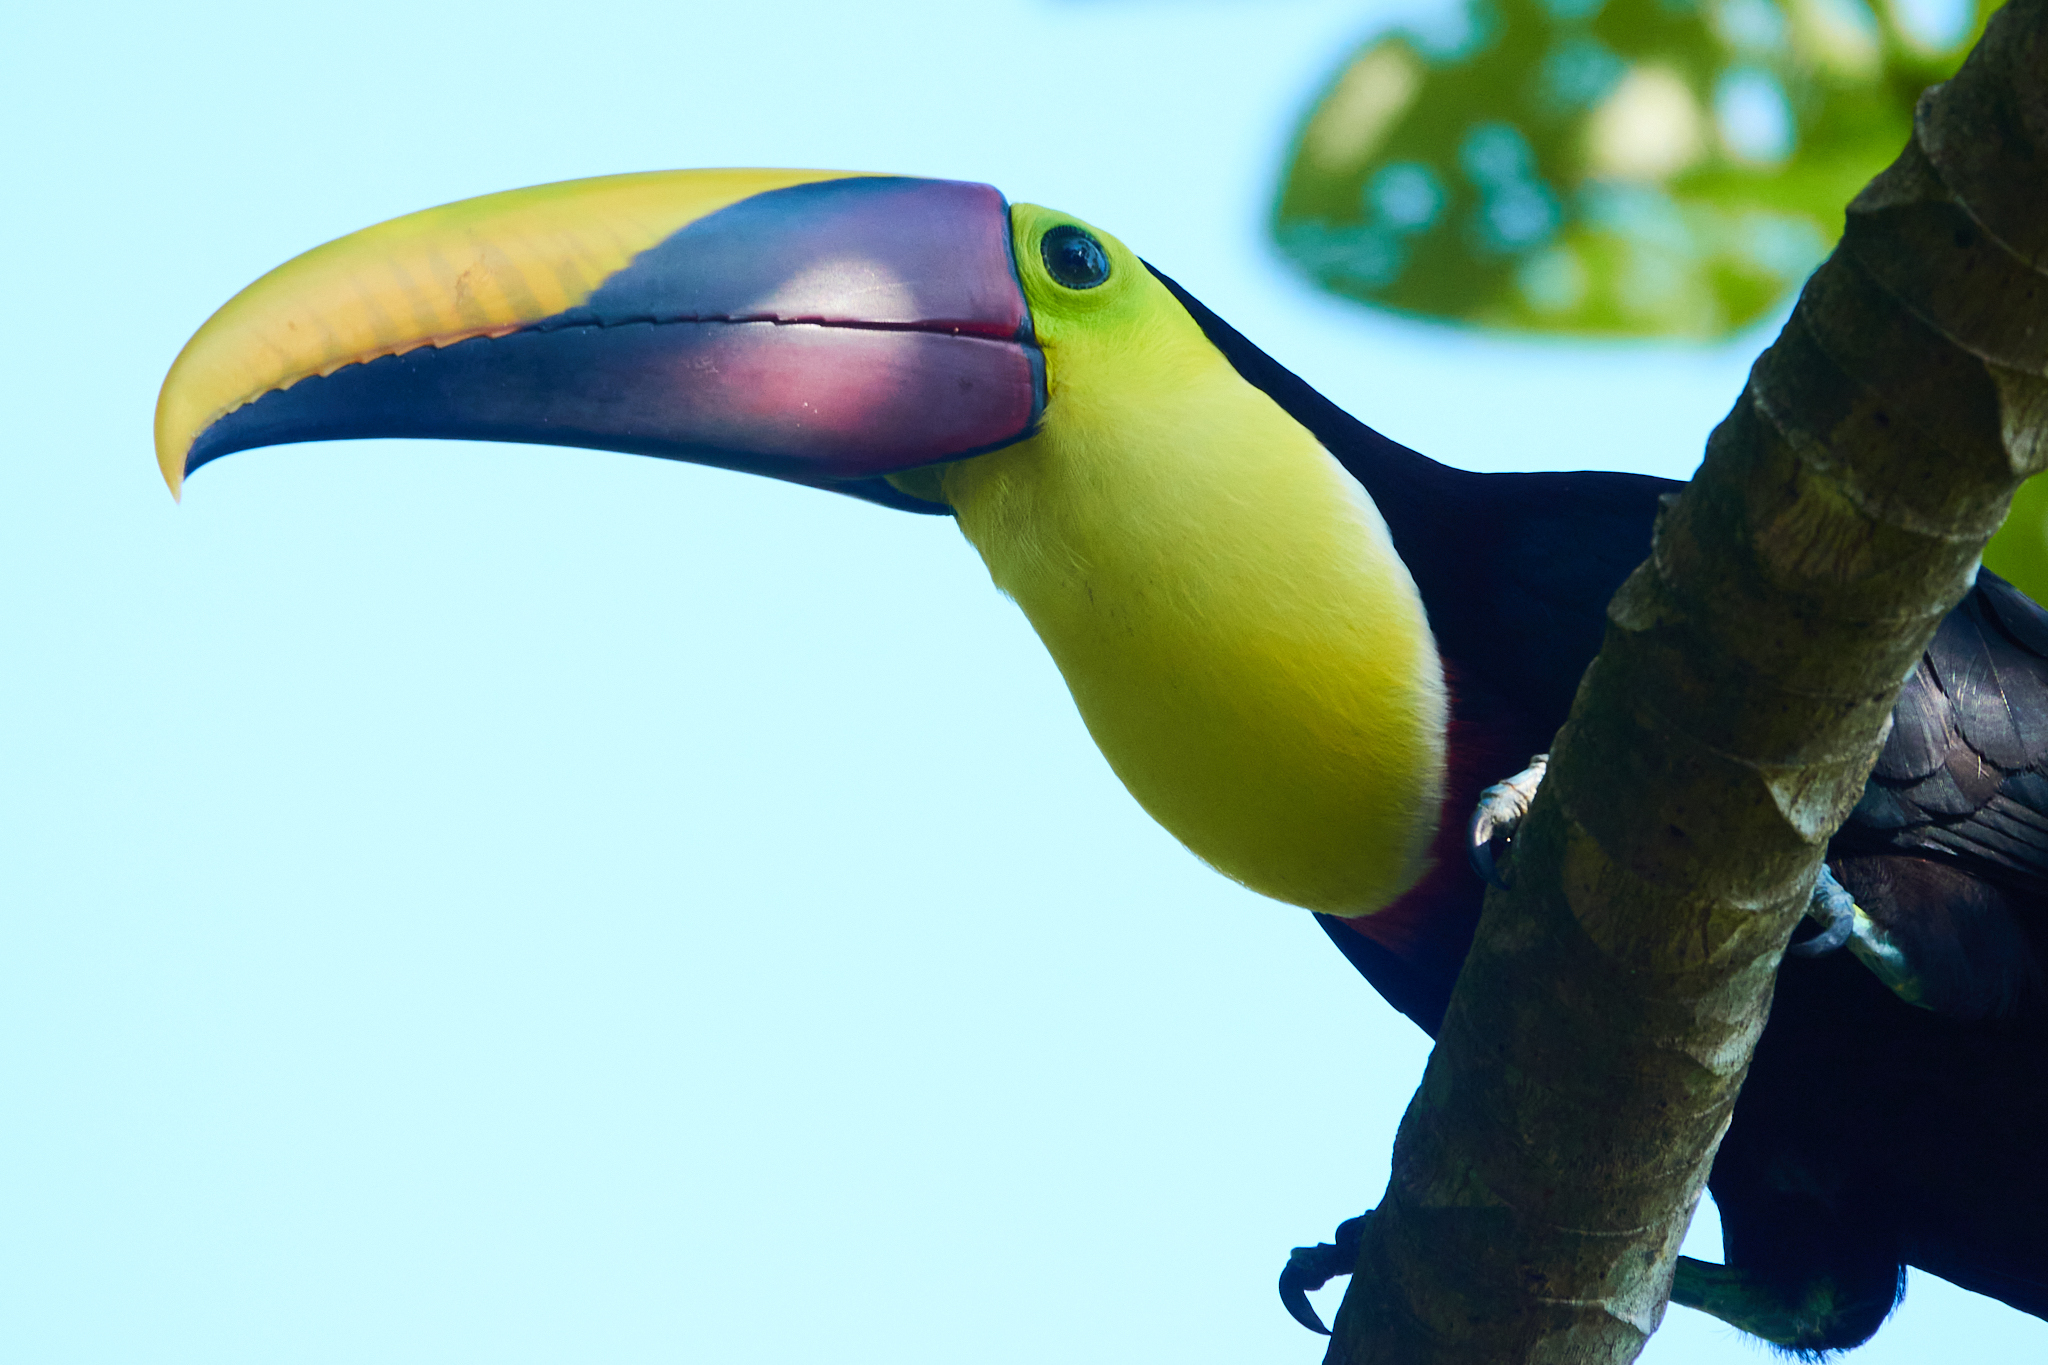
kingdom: Animalia
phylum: Chordata
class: Aves
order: Piciformes
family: Ramphastidae
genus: Ramphastos
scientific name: Ramphastos ambiguus
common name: Yellow-throated toucan
